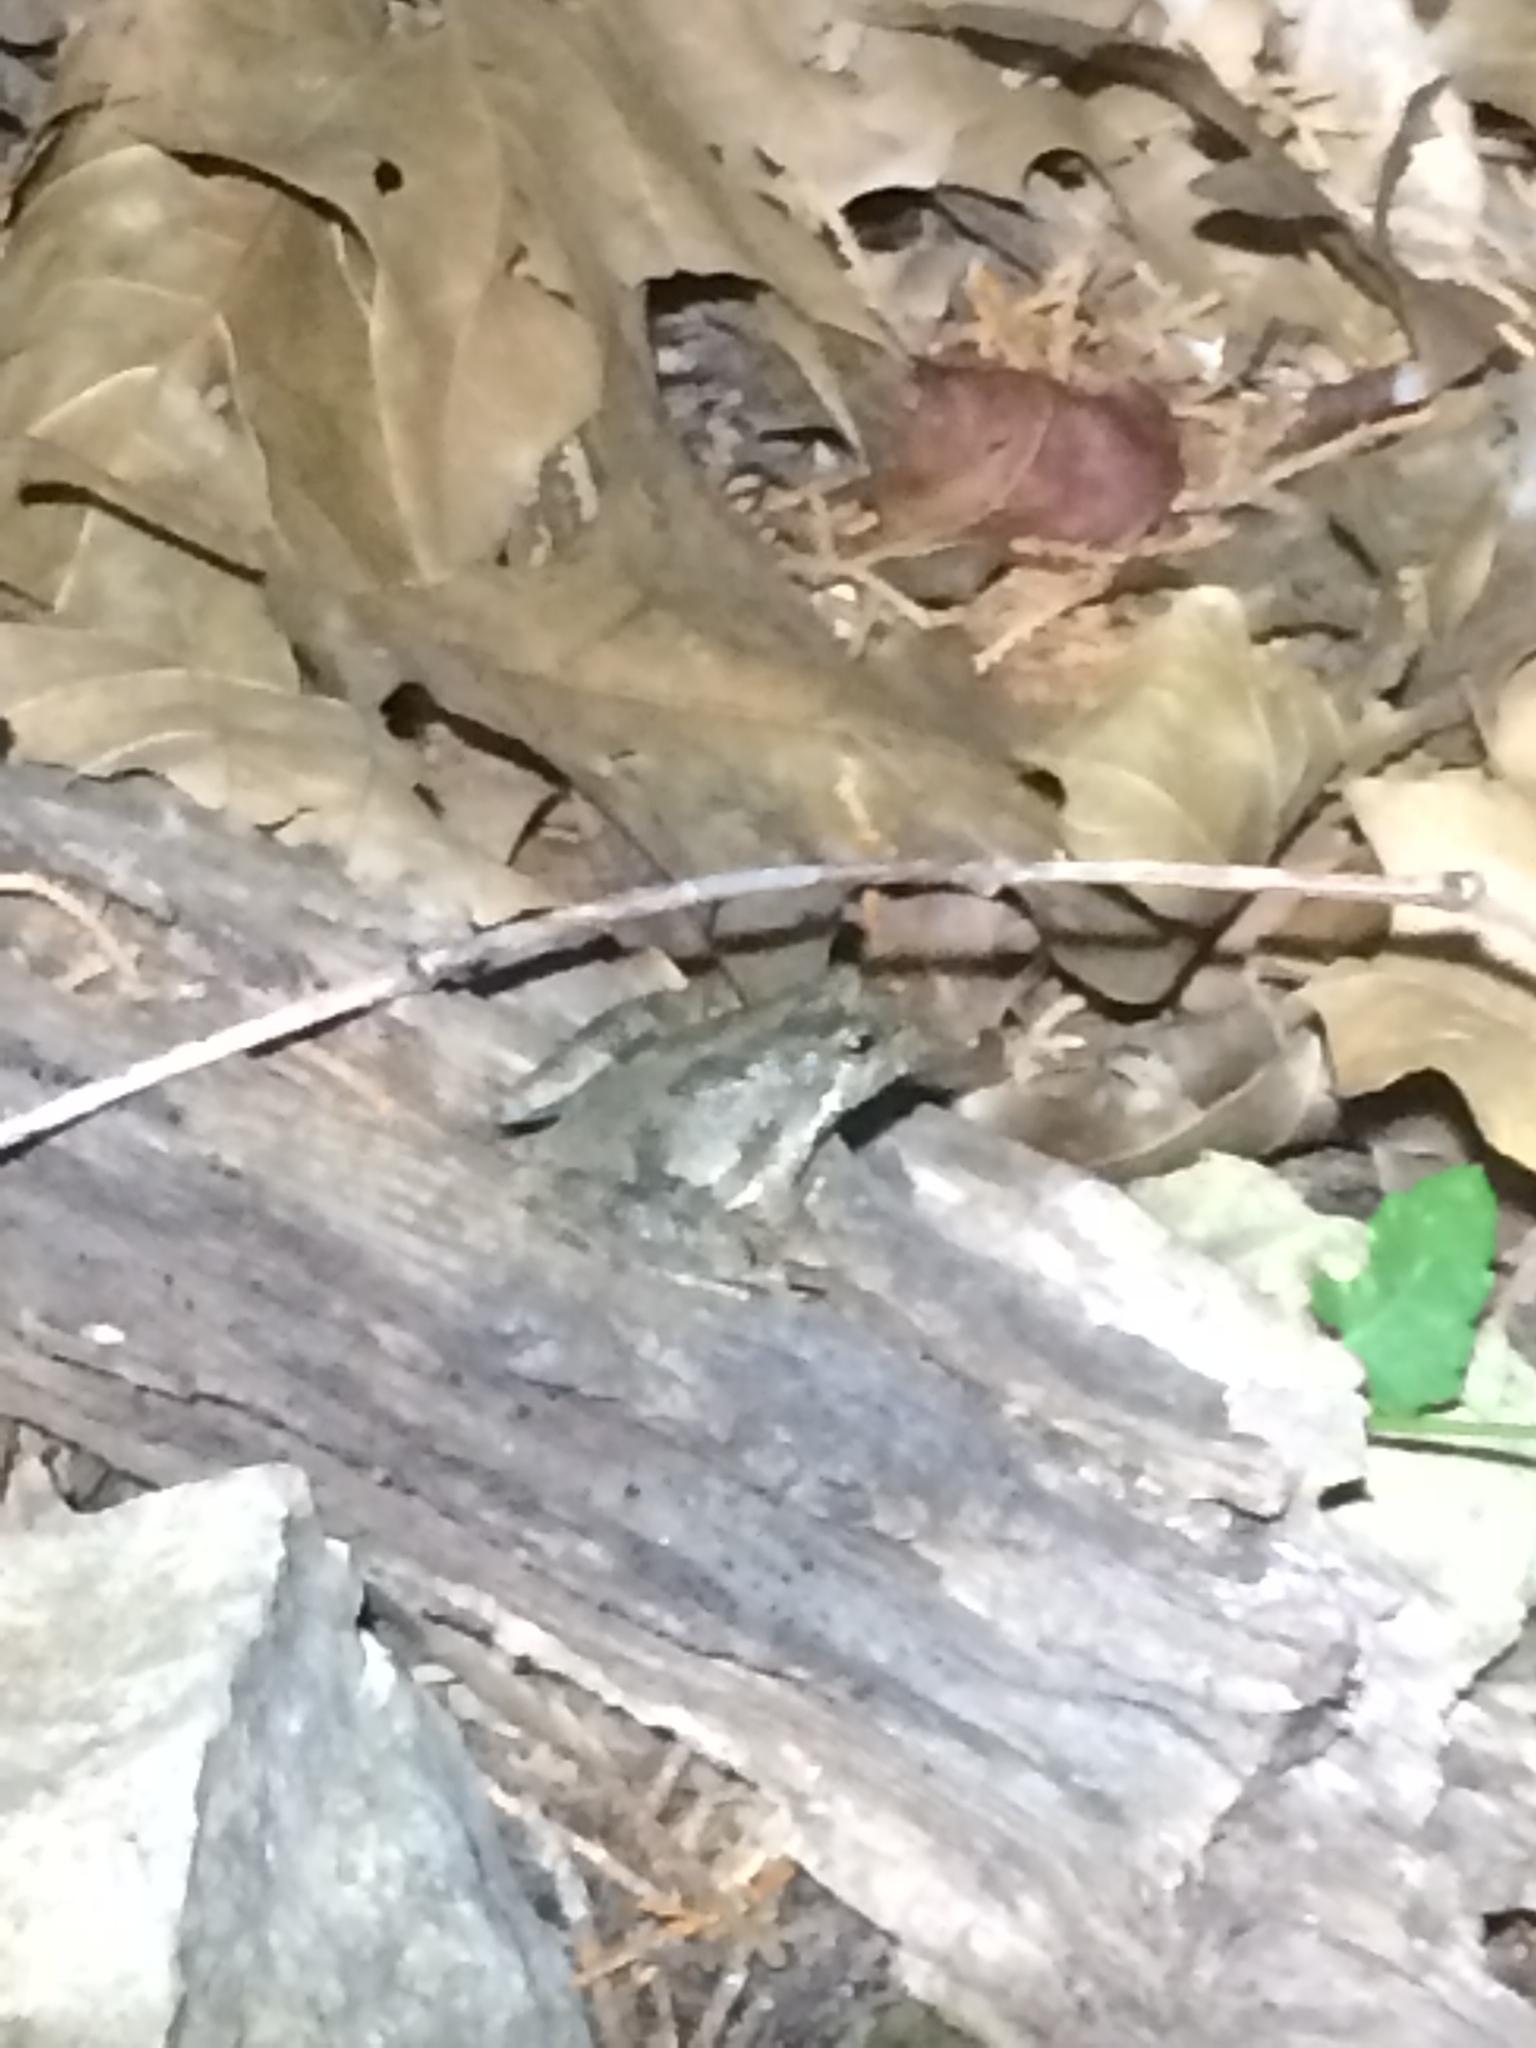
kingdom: Animalia
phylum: Chordata
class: Amphibia
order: Anura
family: Hylidae
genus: Acris
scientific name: Acris blanchardi
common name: Blanchard's cricket frog
